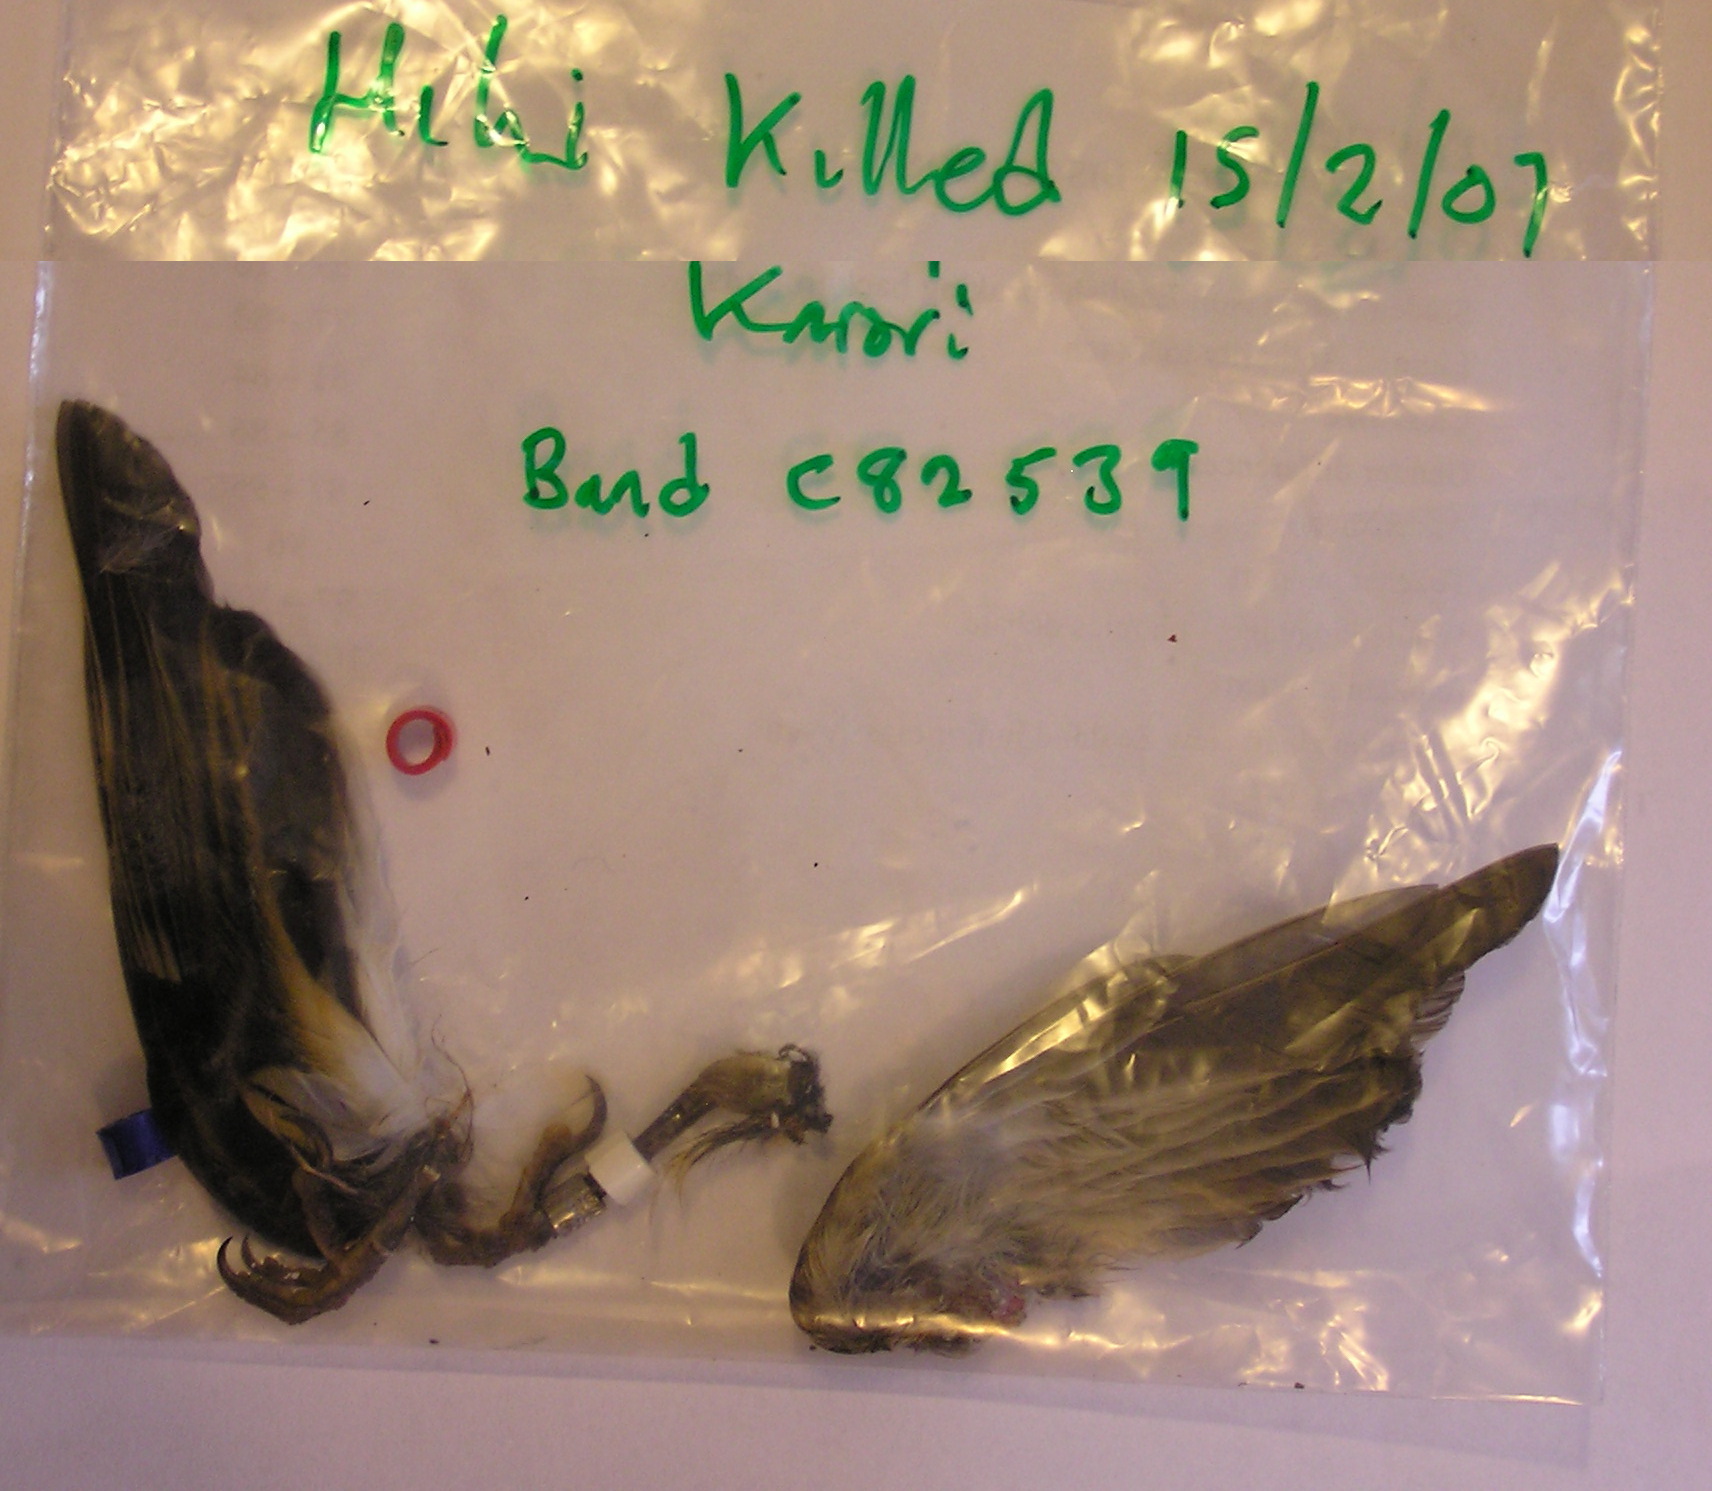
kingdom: Animalia
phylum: Chordata
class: Aves
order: Passeriformes
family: Notiomystidae
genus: Notiomystis
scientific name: Notiomystis cincta
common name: Stitchbird
